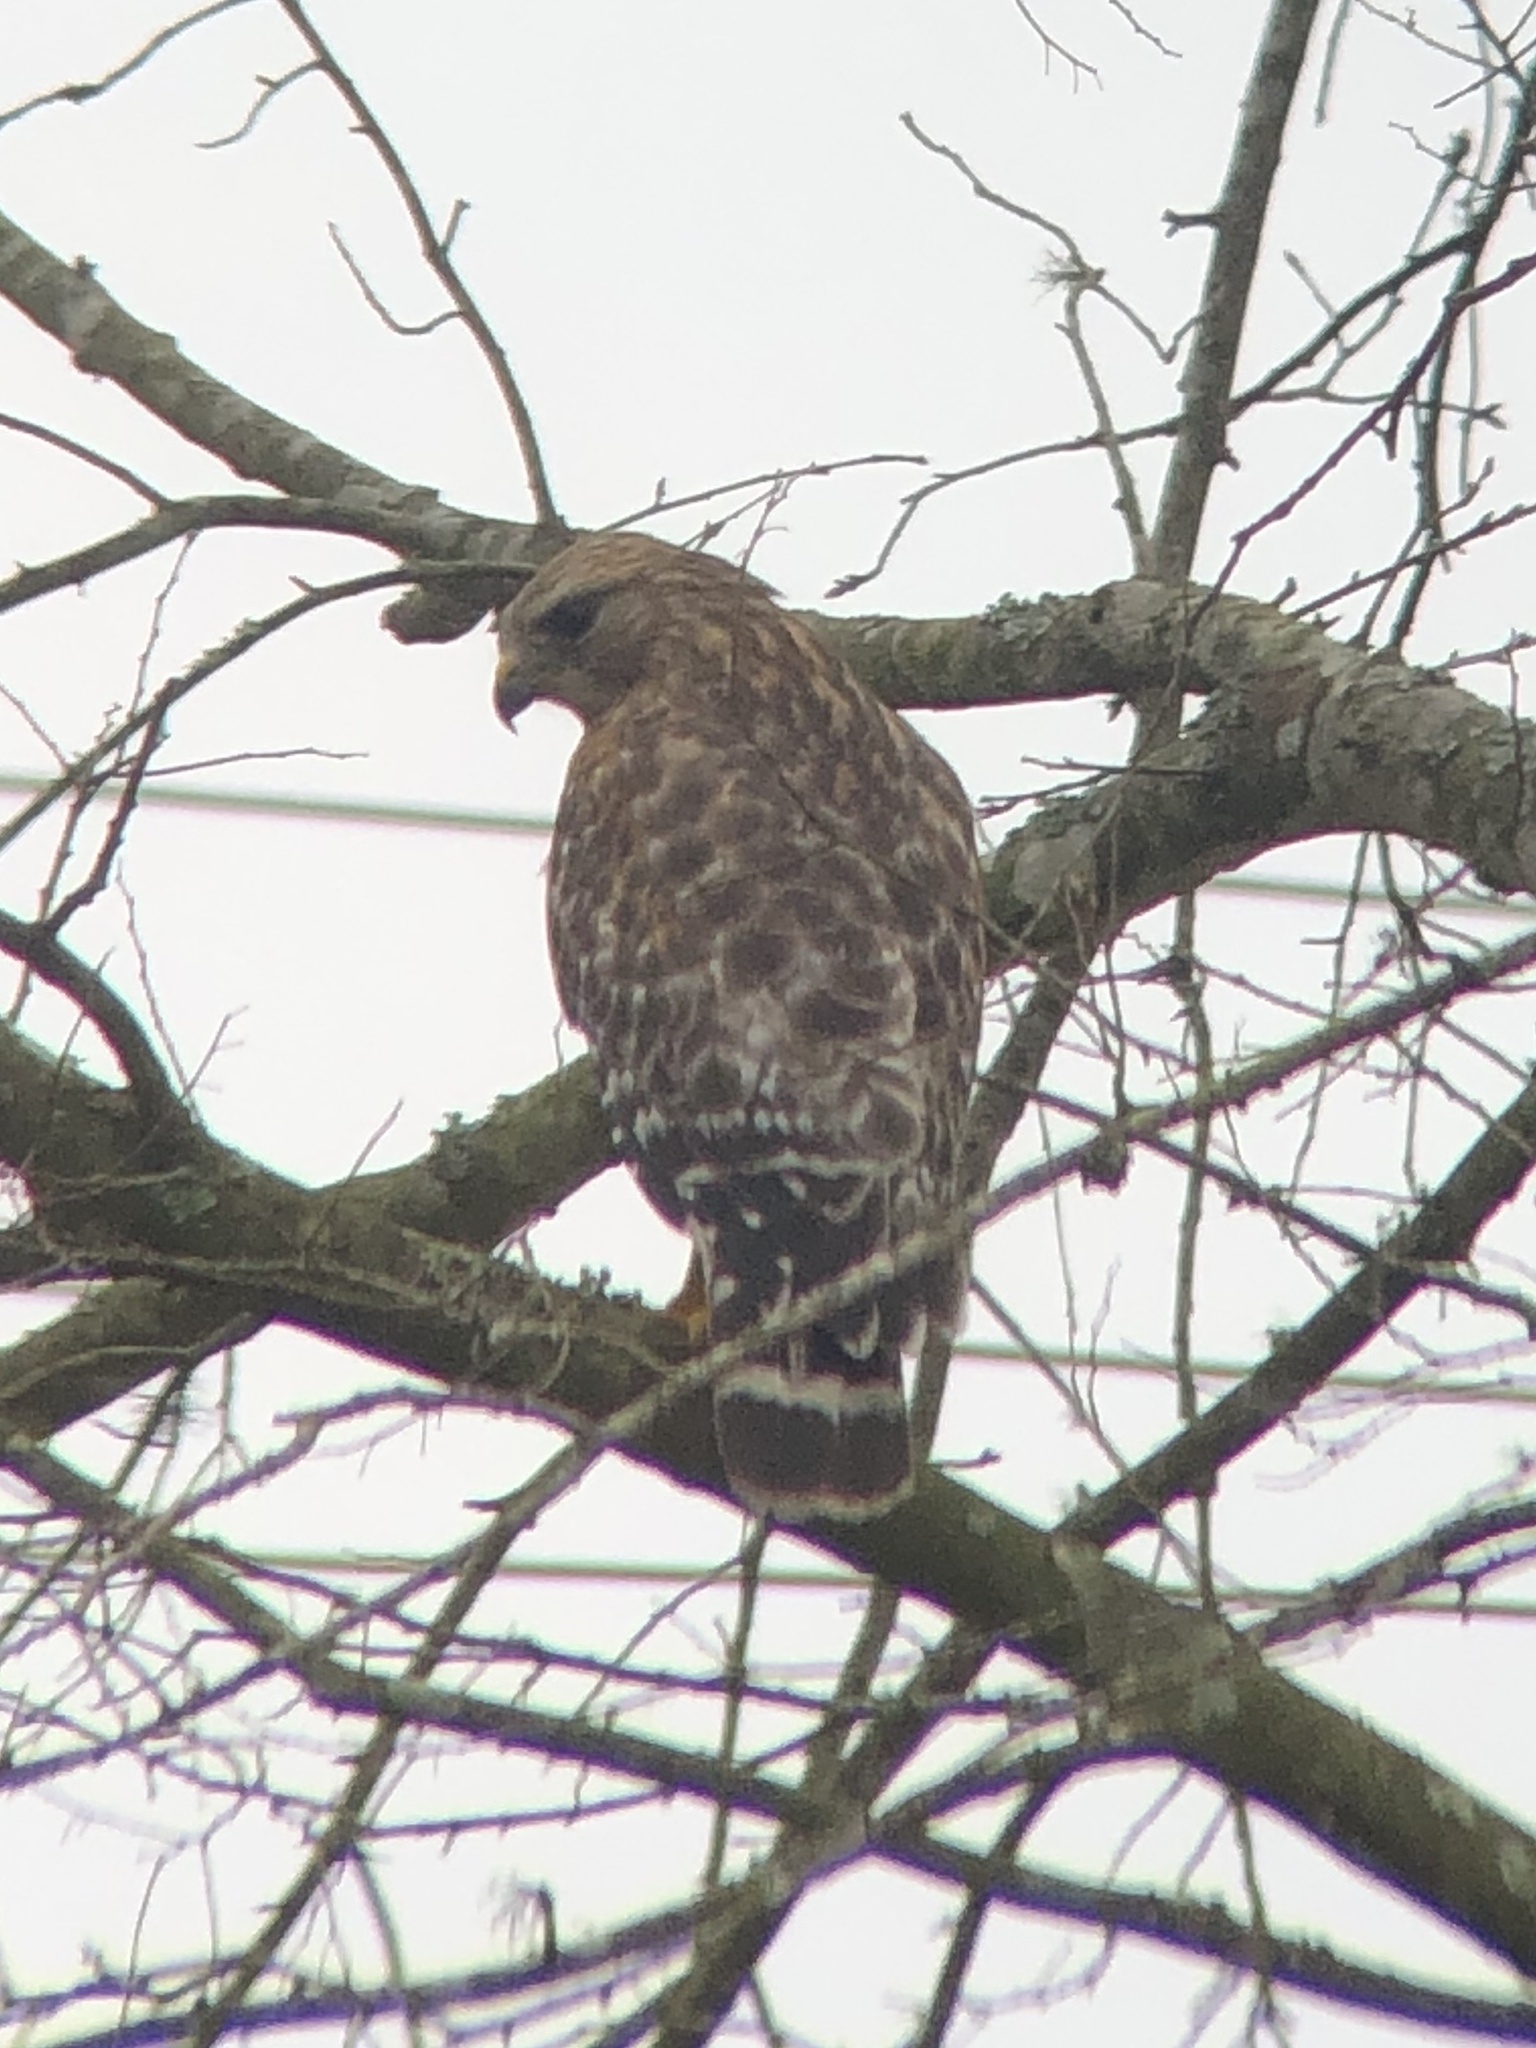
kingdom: Animalia
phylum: Chordata
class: Aves
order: Accipitriformes
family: Accipitridae
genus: Buteo
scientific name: Buteo lineatus
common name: Red-shouldered hawk
